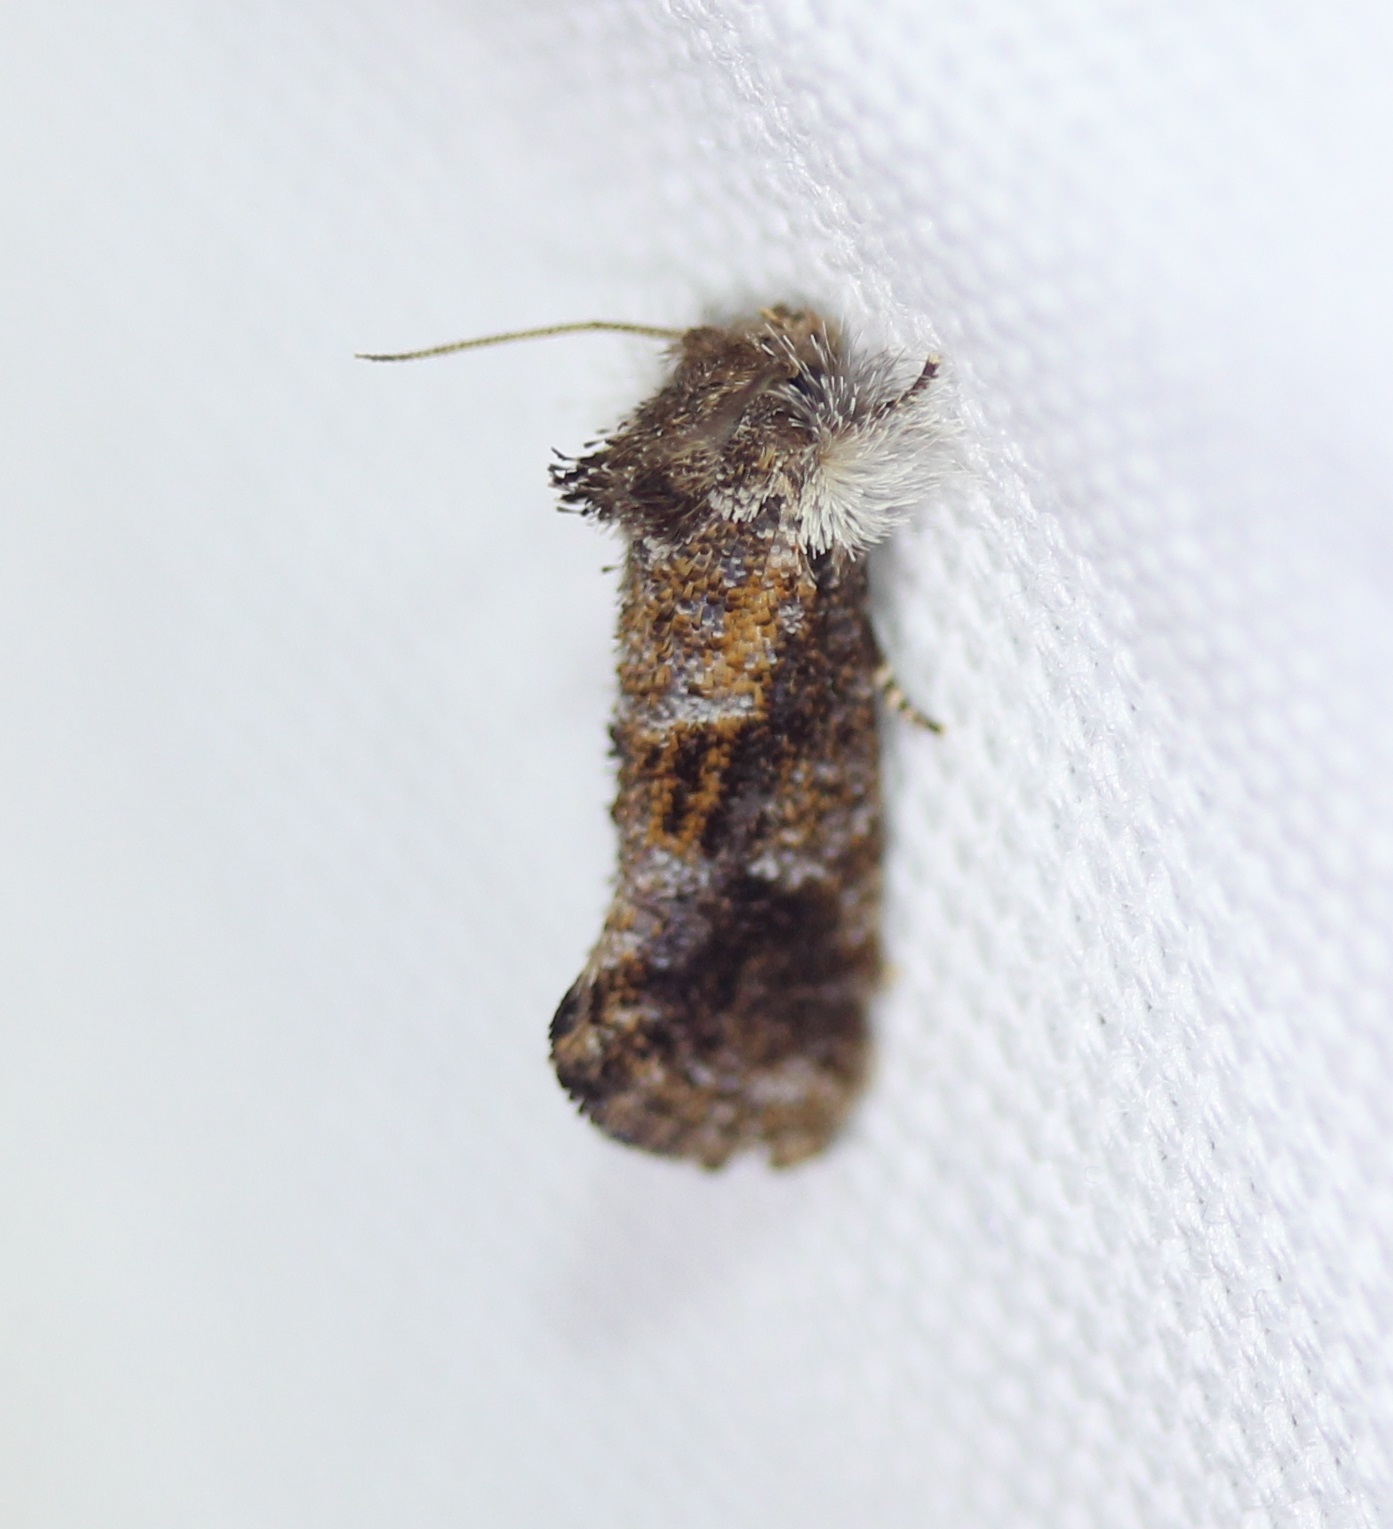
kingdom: Animalia
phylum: Arthropoda
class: Insecta
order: Lepidoptera
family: Tineidae
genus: Acrolophus
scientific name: Acrolophus panamae
